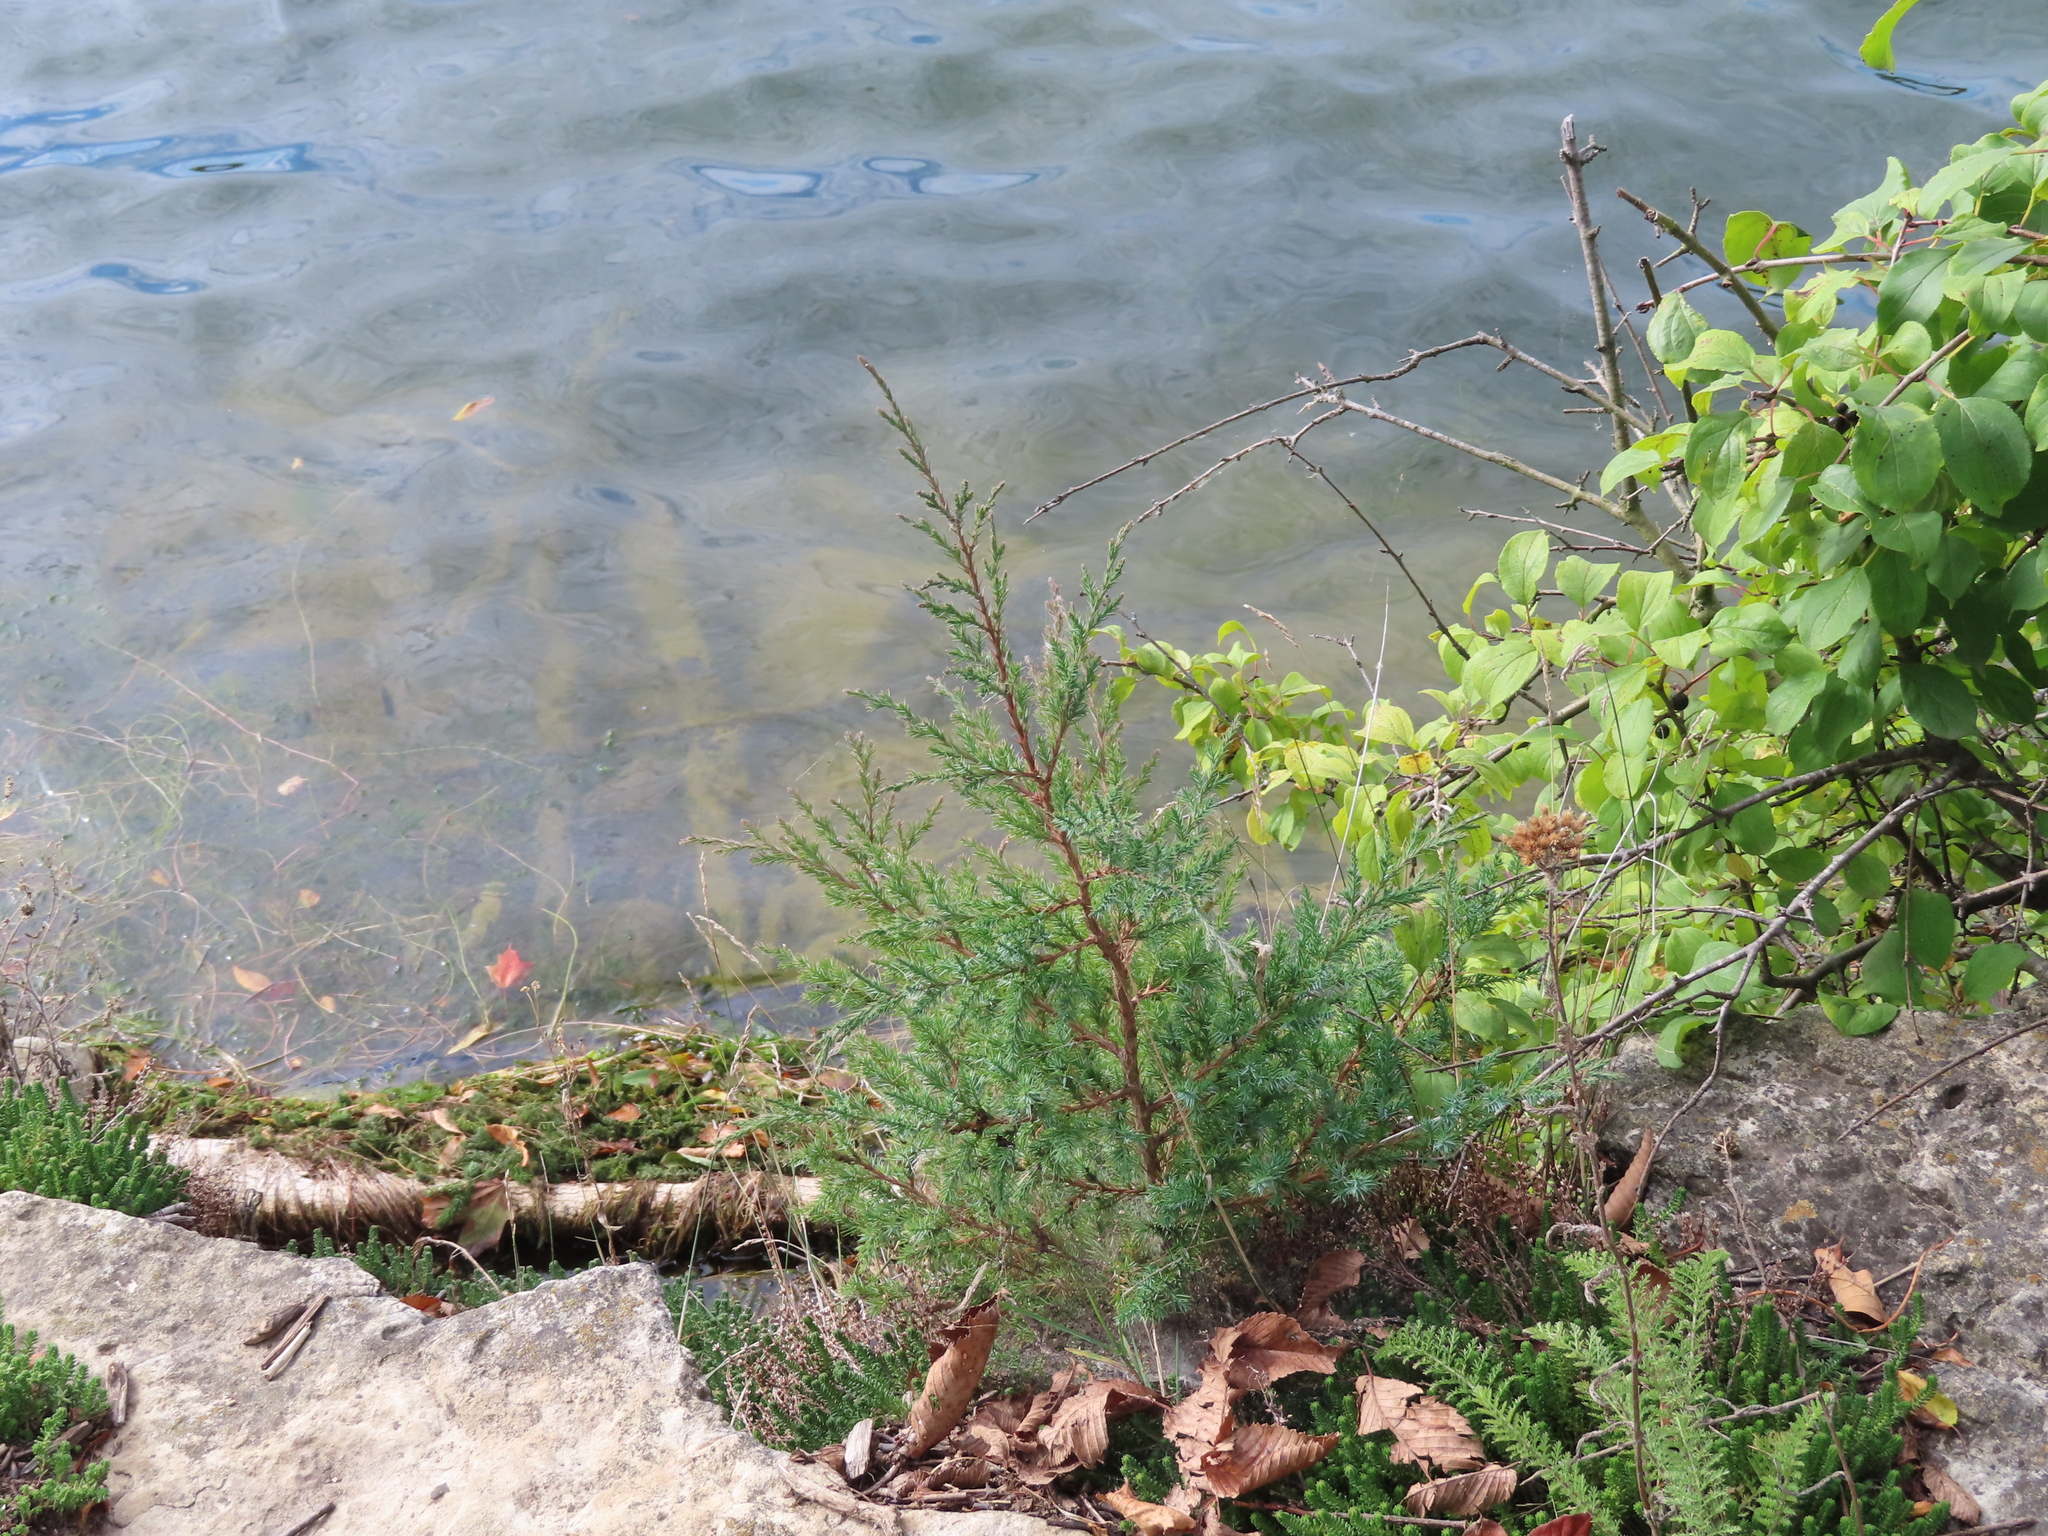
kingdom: Plantae
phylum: Tracheophyta
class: Magnoliopsida
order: Rosales
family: Rhamnaceae
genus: Rhamnus
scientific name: Rhamnus cathartica
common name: Common buckthorn
